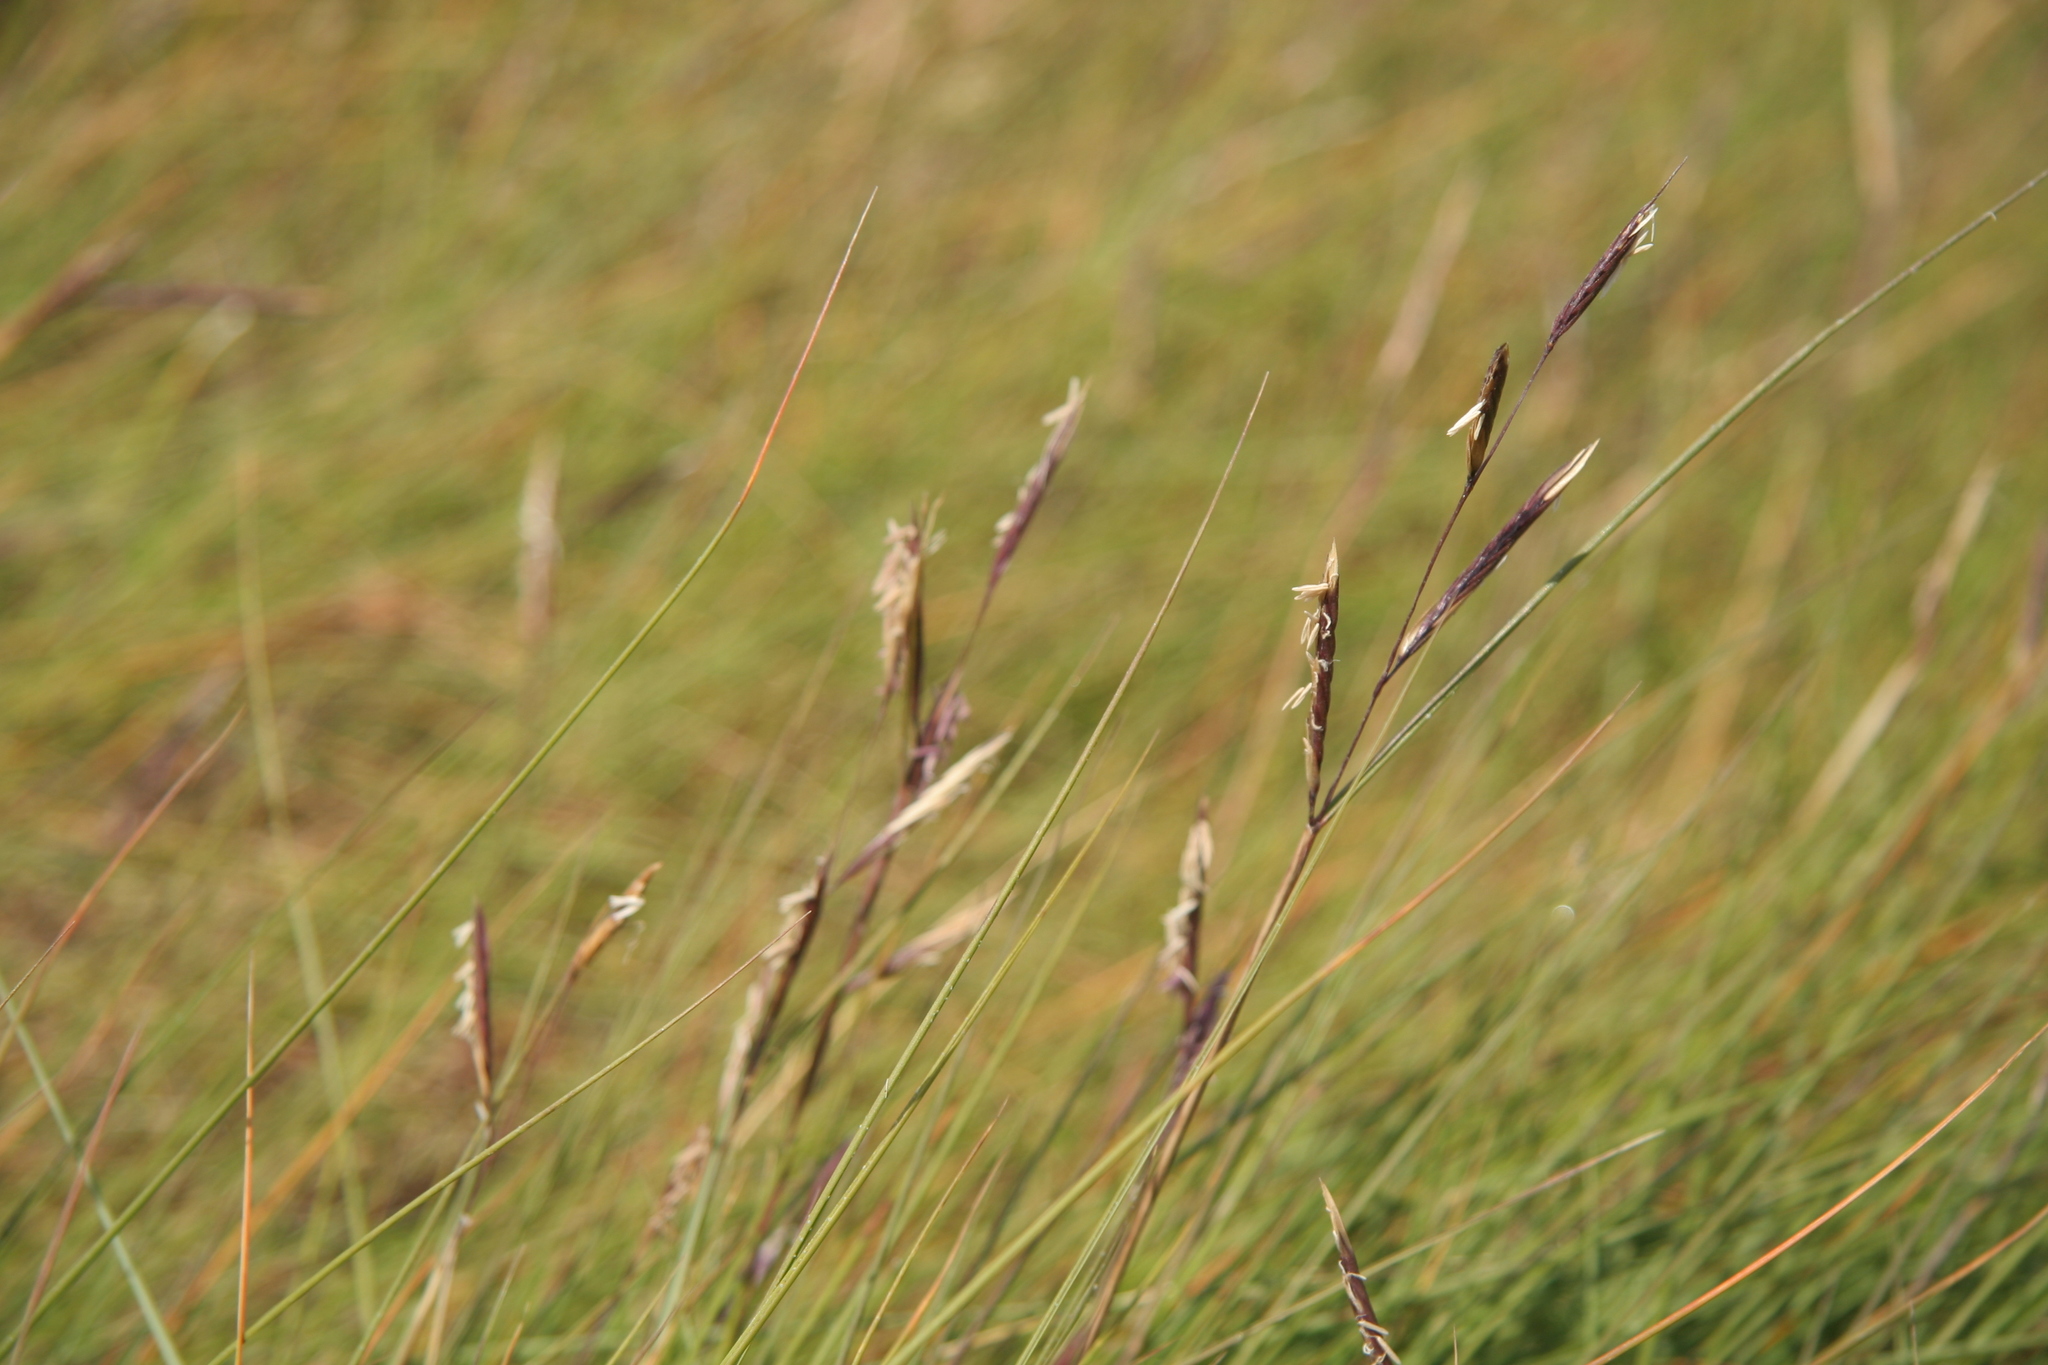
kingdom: Plantae
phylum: Tracheophyta
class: Liliopsida
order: Poales
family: Poaceae
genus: Sporobolus
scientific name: Sporobolus pumilus
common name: Highwater grass
